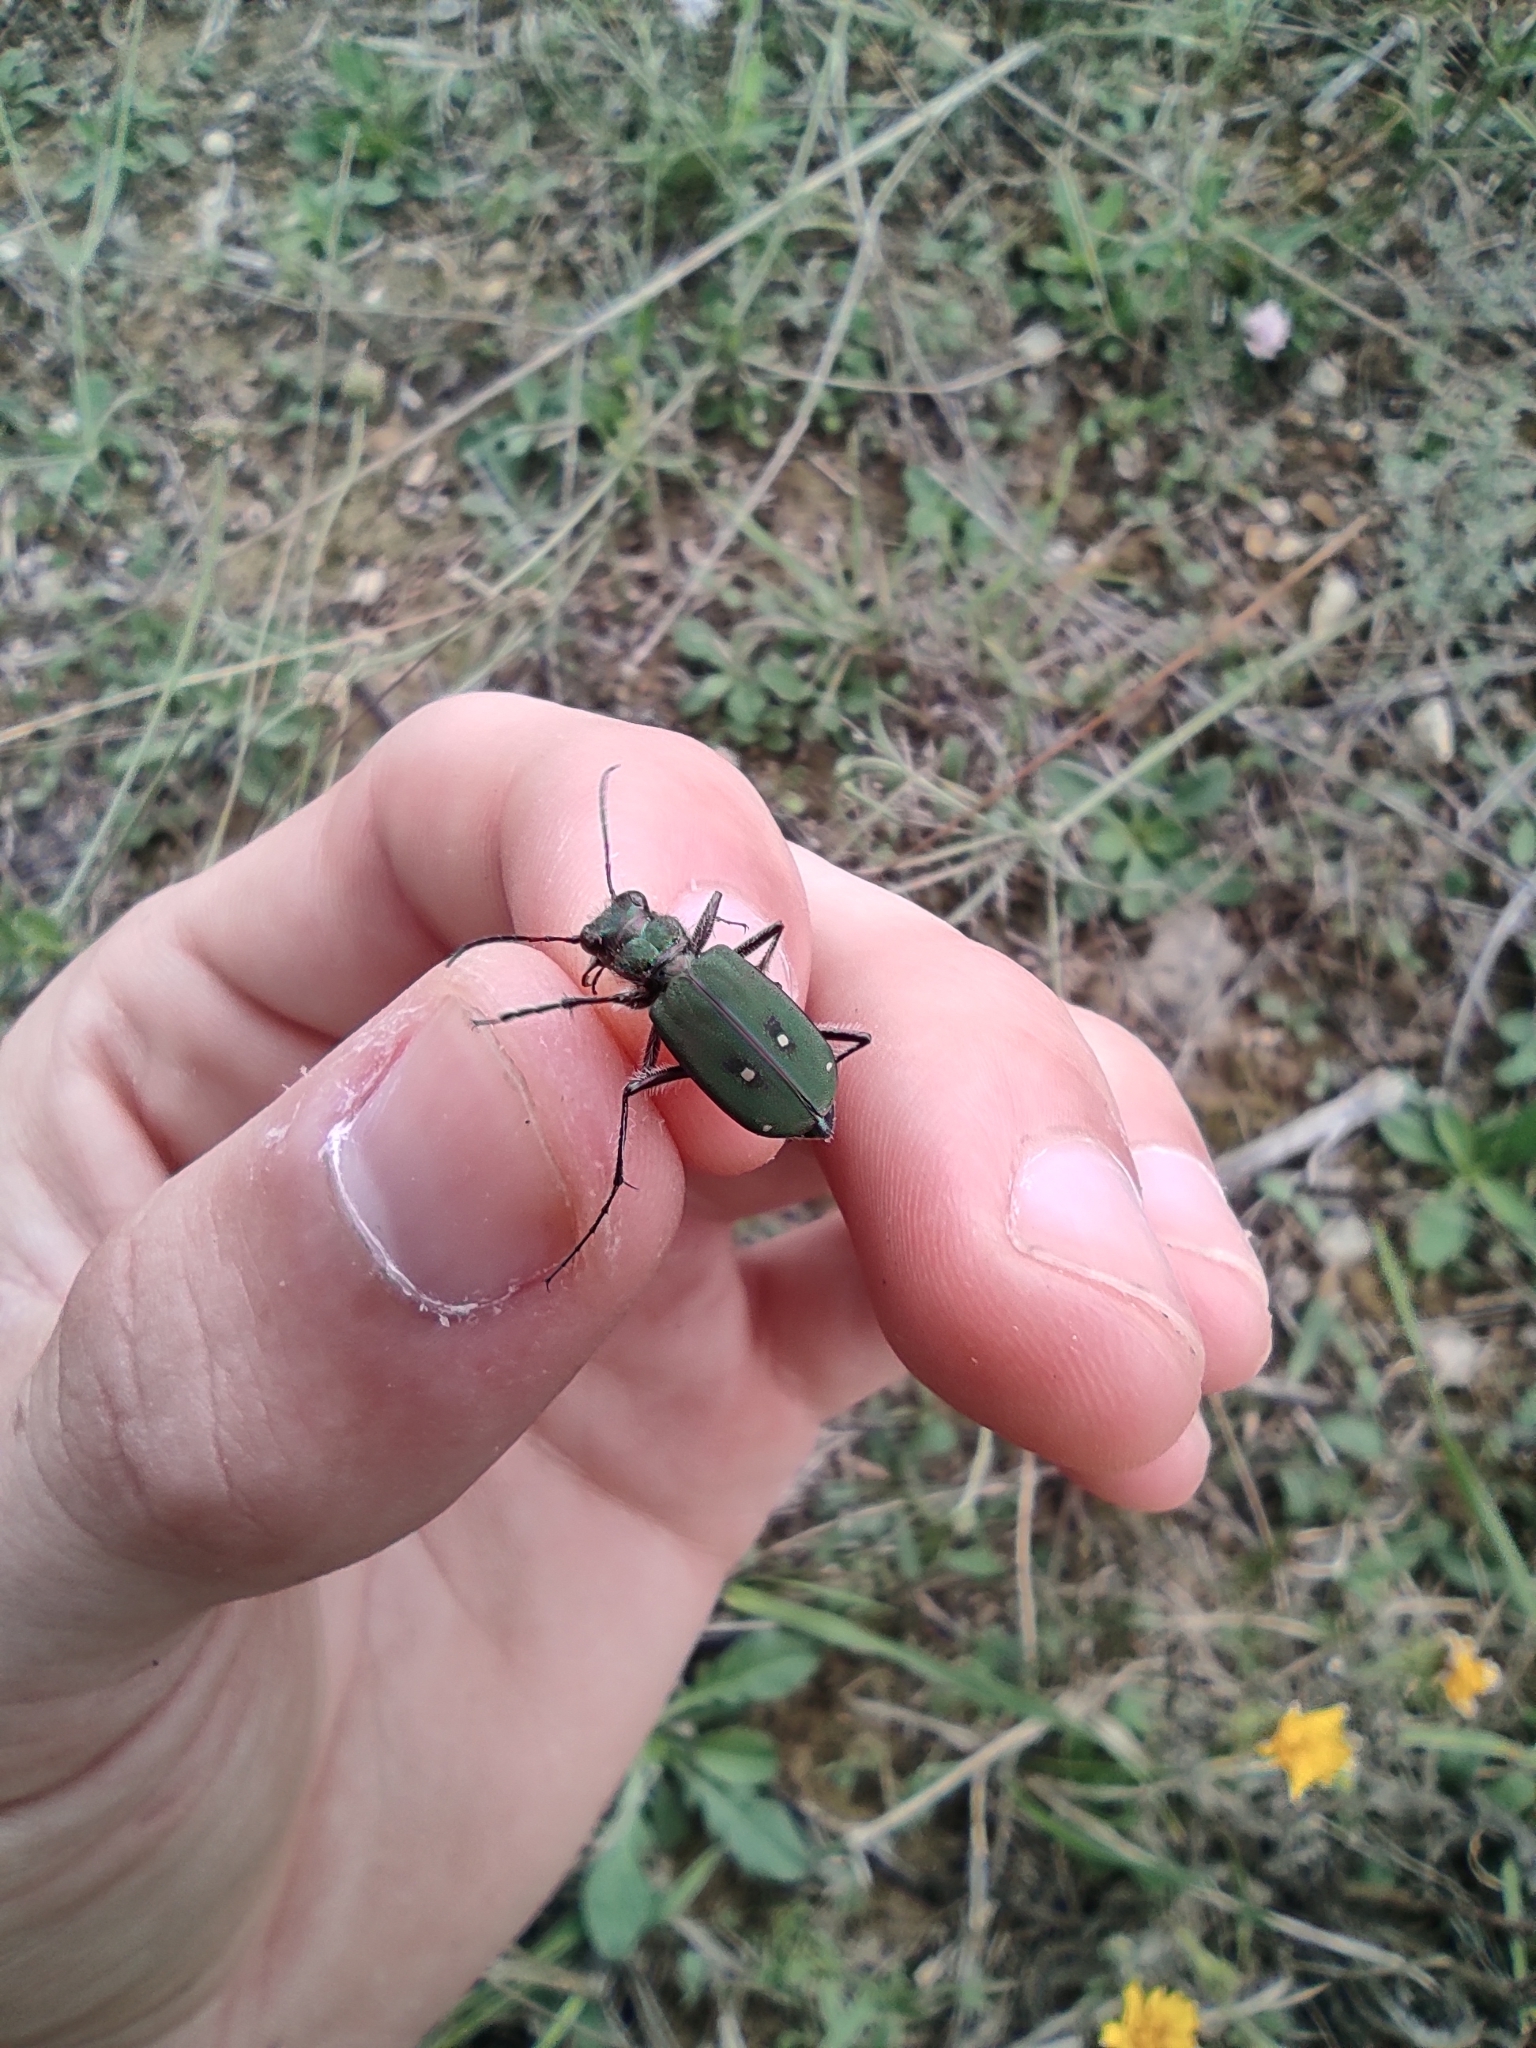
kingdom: Animalia
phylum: Arthropoda
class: Insecta
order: Coleoptera
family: Carabidae
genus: Cicindela
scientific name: Cicindela campestris
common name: Common tiger beetle
